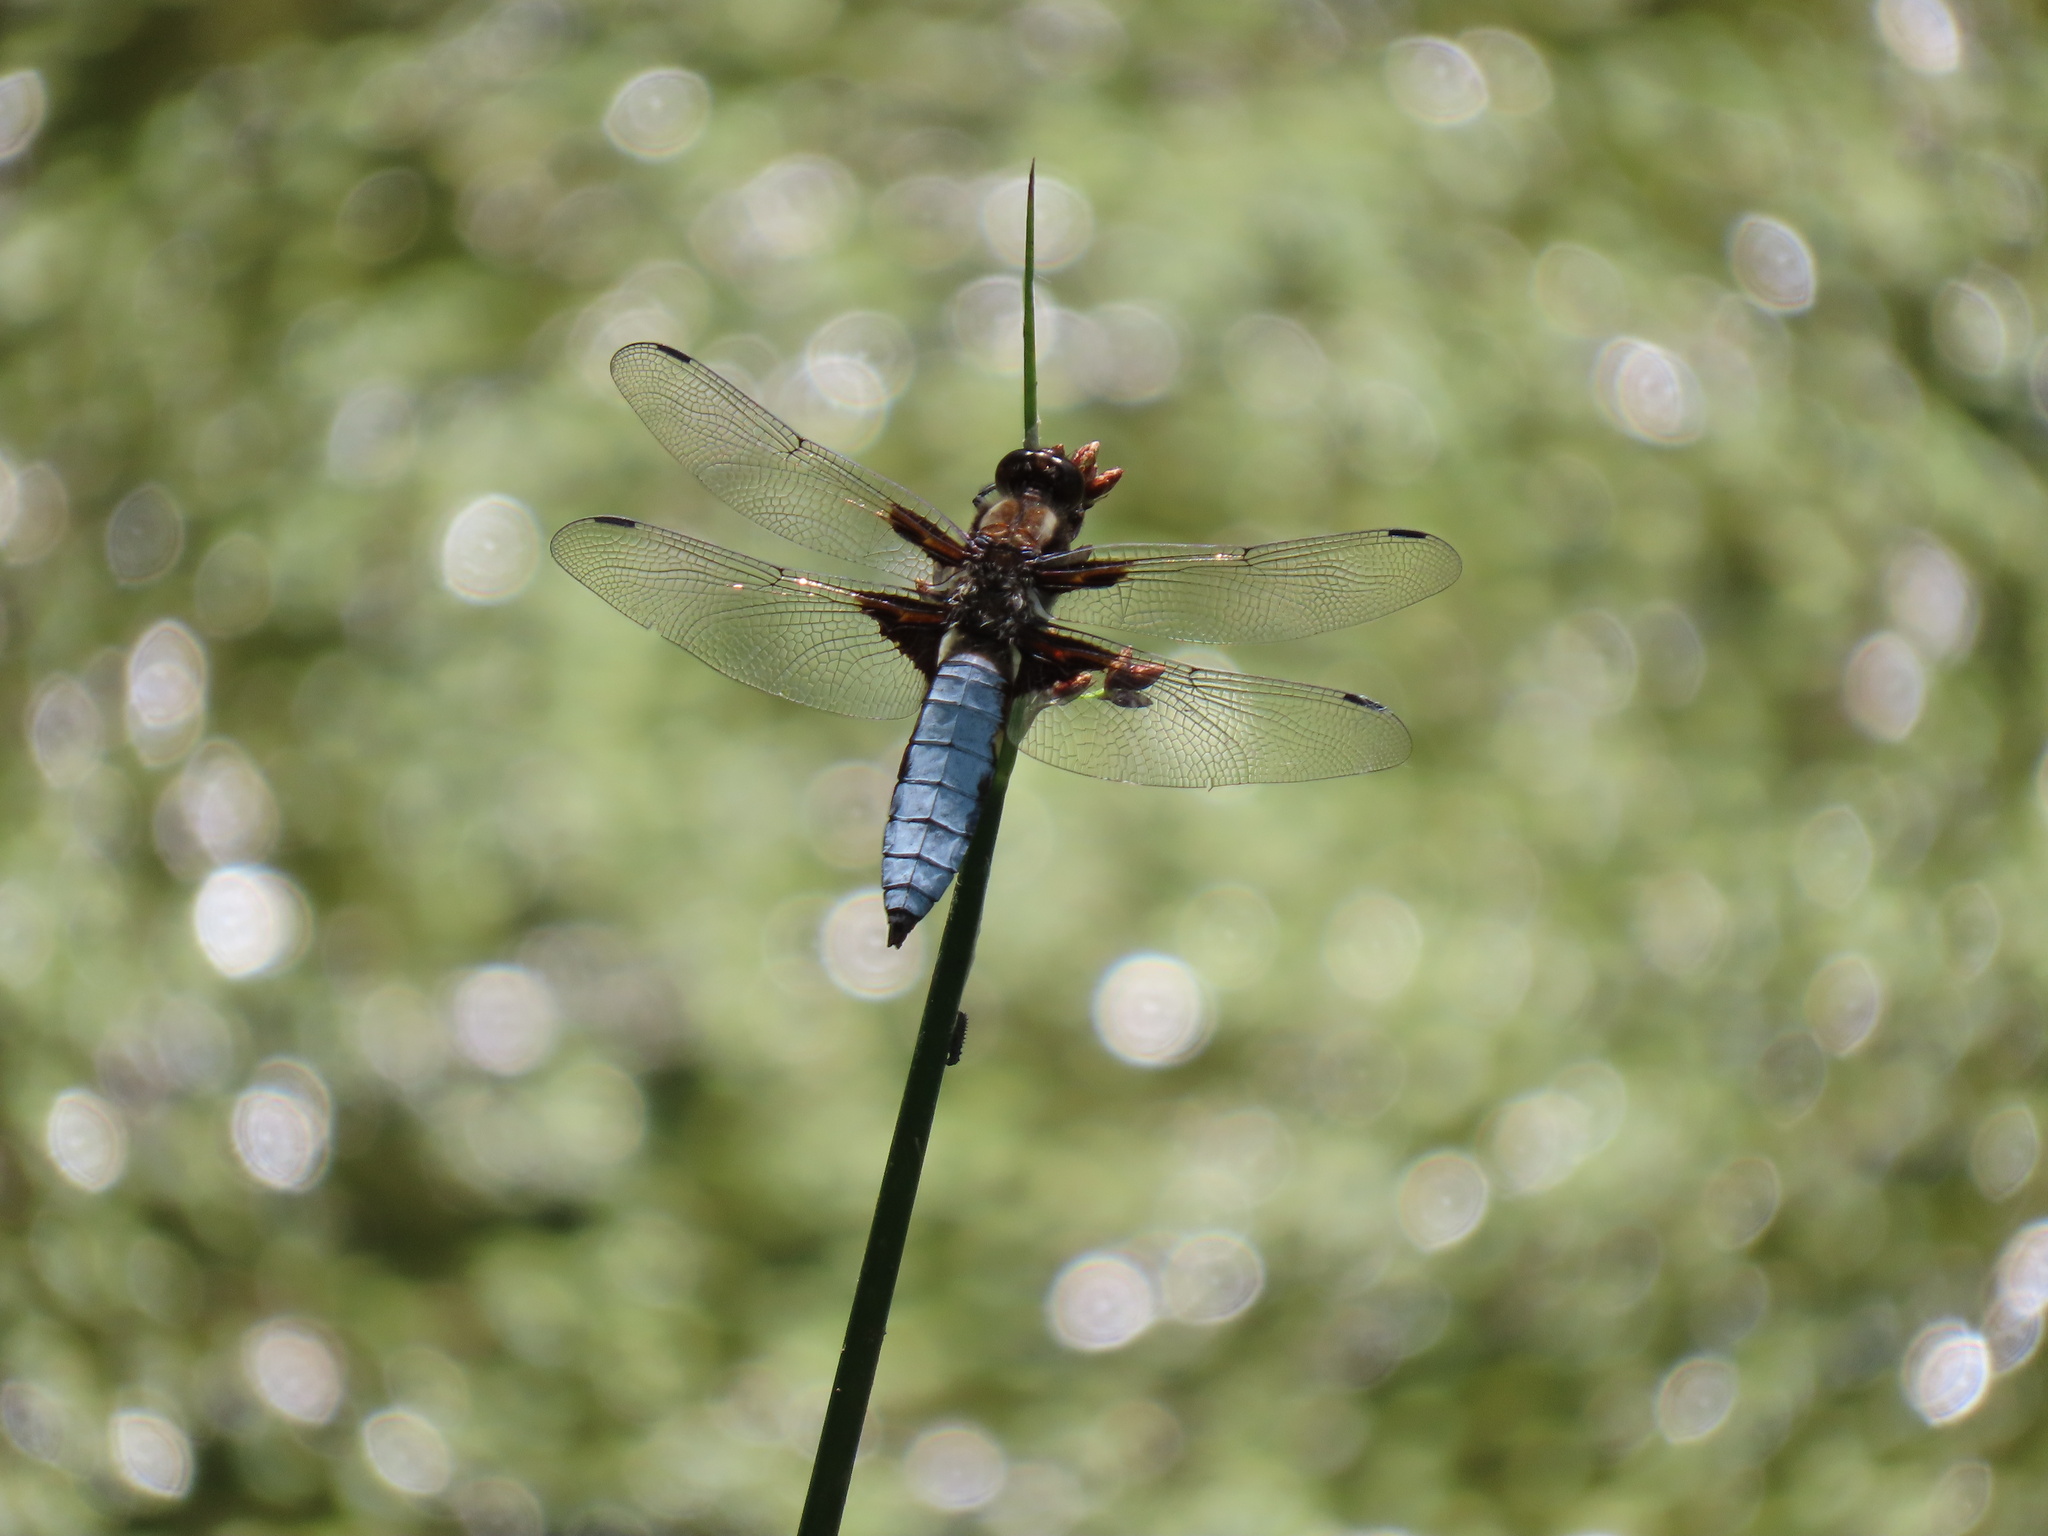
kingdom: Animalia
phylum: Arthropoda
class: Insecta
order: Odonata
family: Libellulidae
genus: Libellula
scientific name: Libellula depressa
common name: Broad-bodied chaser
